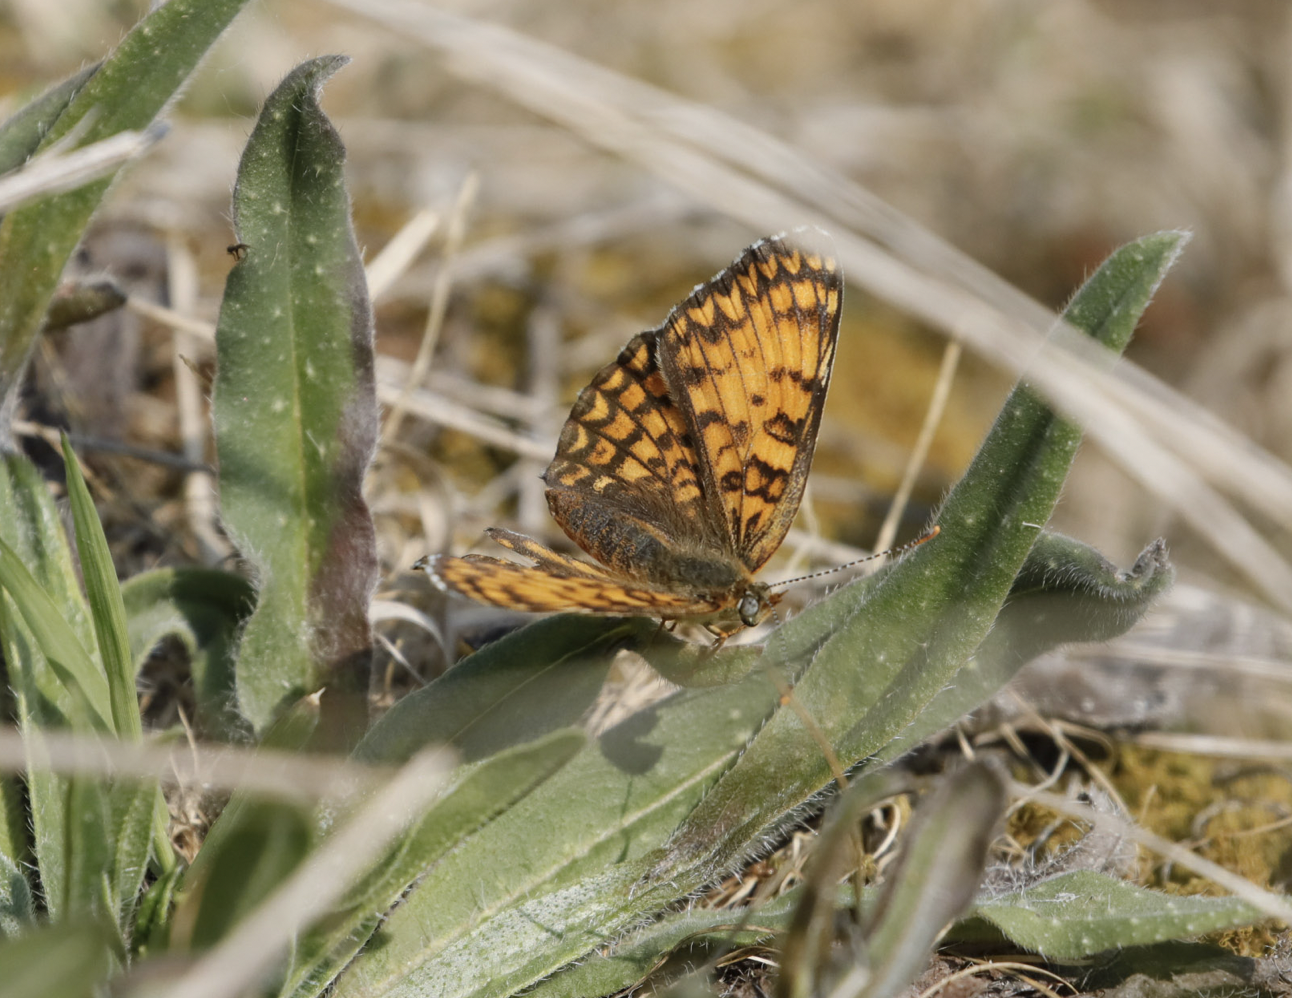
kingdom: Animalia
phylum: Arthropoda
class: Insecta
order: Lepidoptera
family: Nymphalidae
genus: Melitaea
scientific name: Melitaea phoebe
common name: Knapweed fritillary
